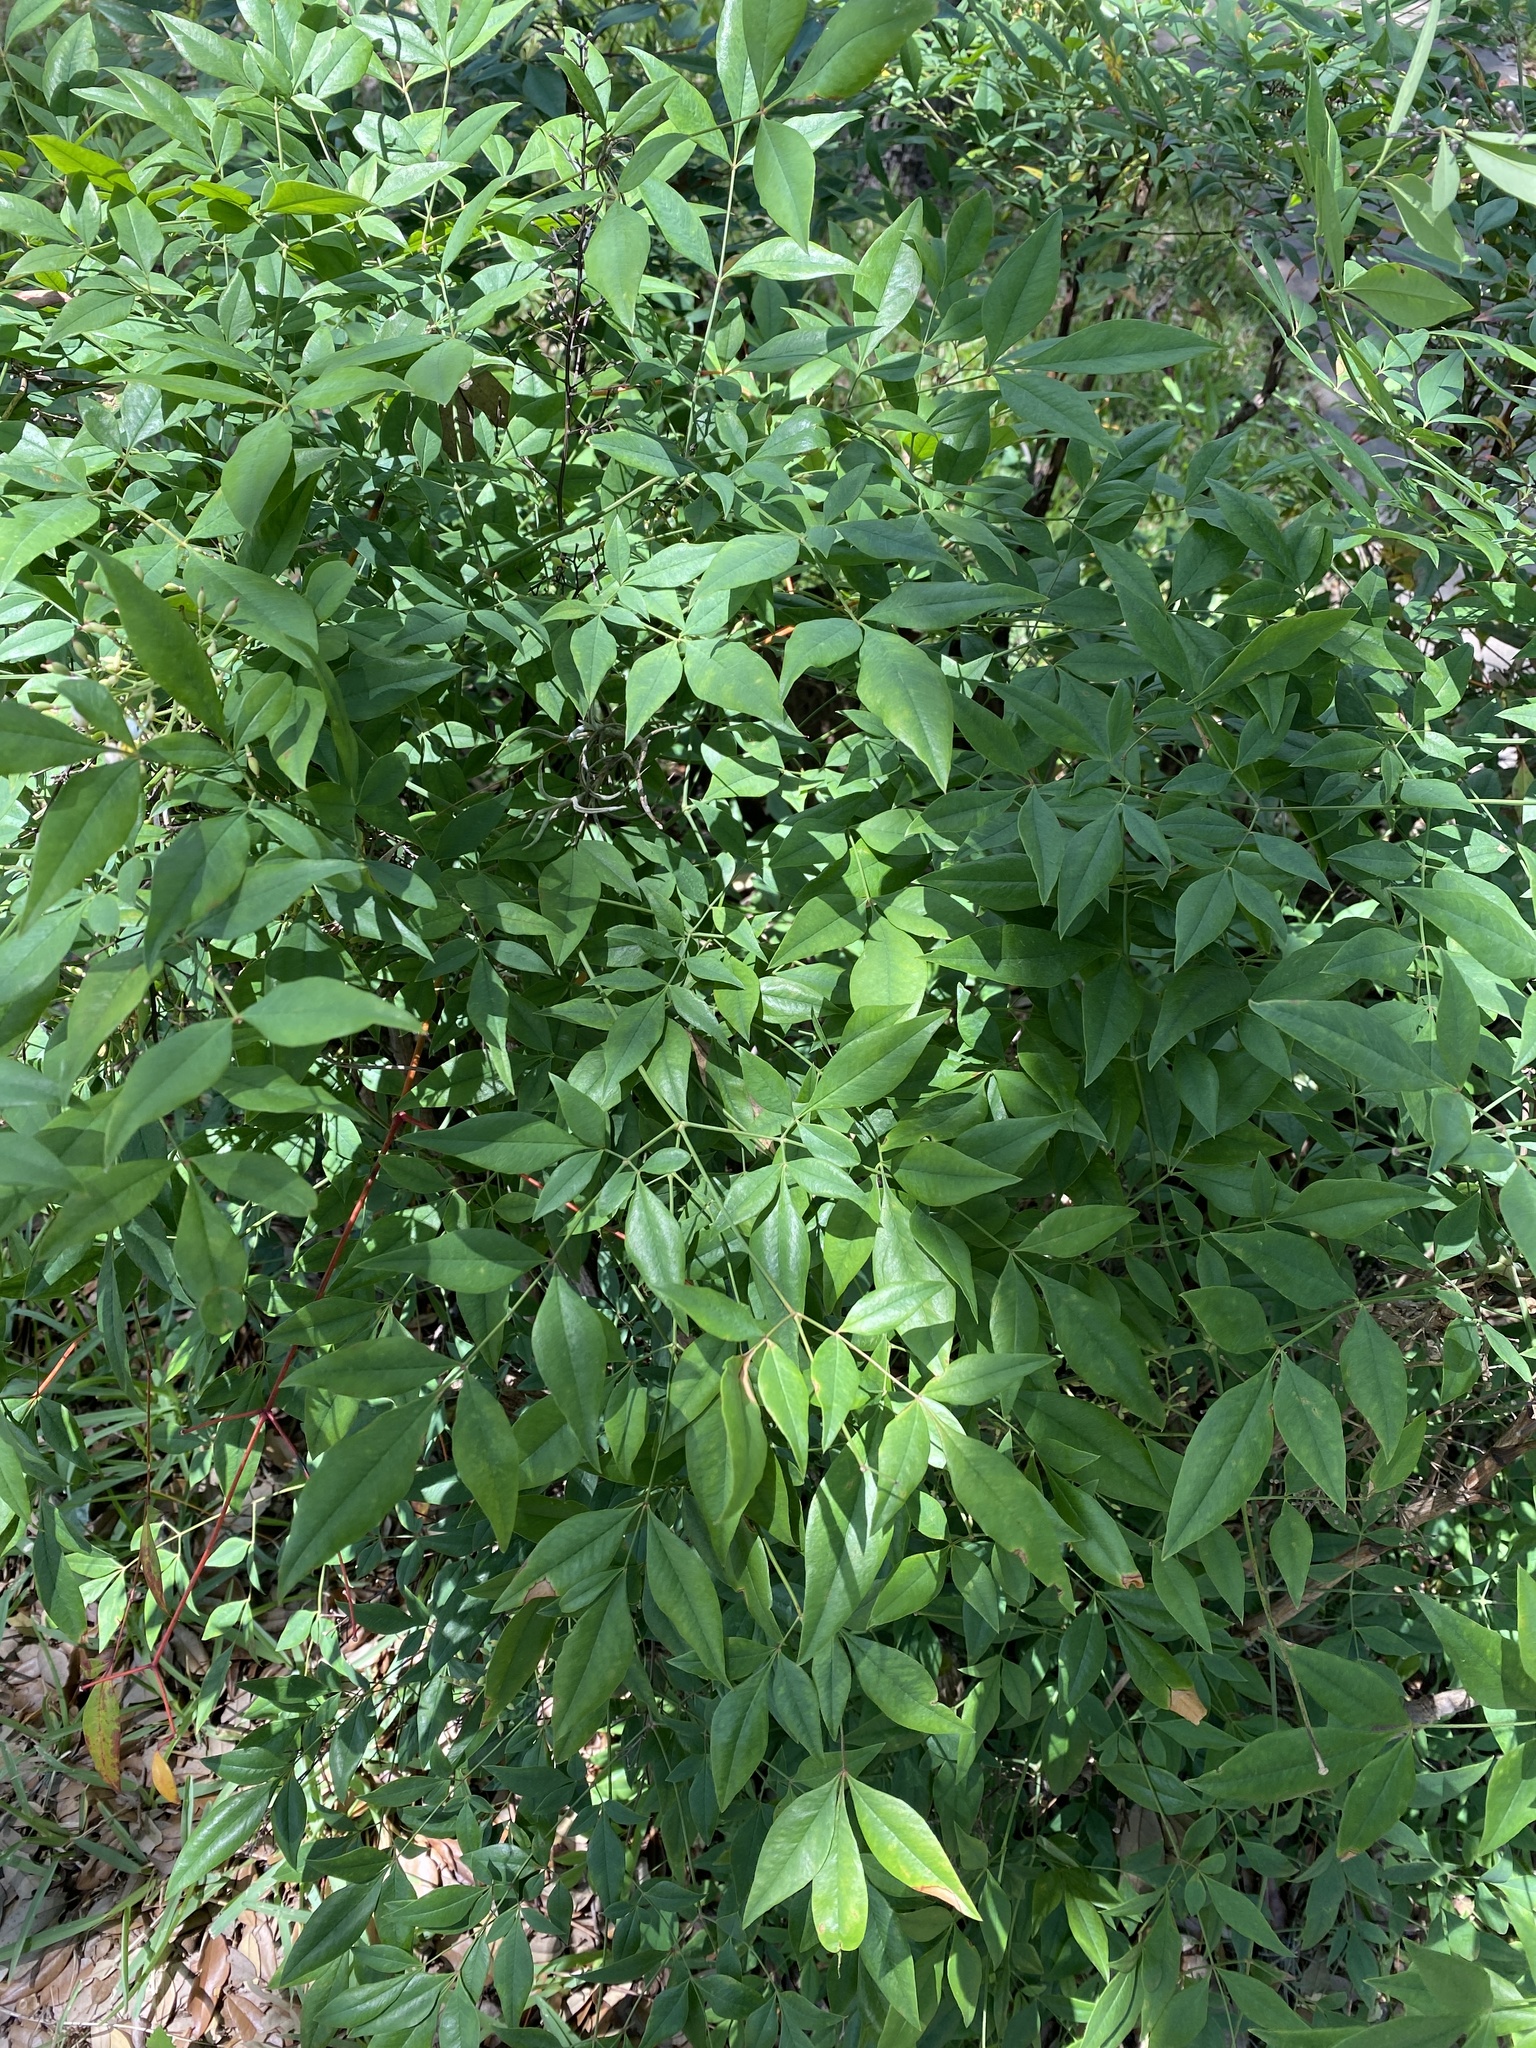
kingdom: Plantae
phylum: Tracheophyta
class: Magnoliopsida
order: Ranunculales
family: Berberidaceae
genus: Nandina
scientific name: Nandina domestica
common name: Sacred bamboo
